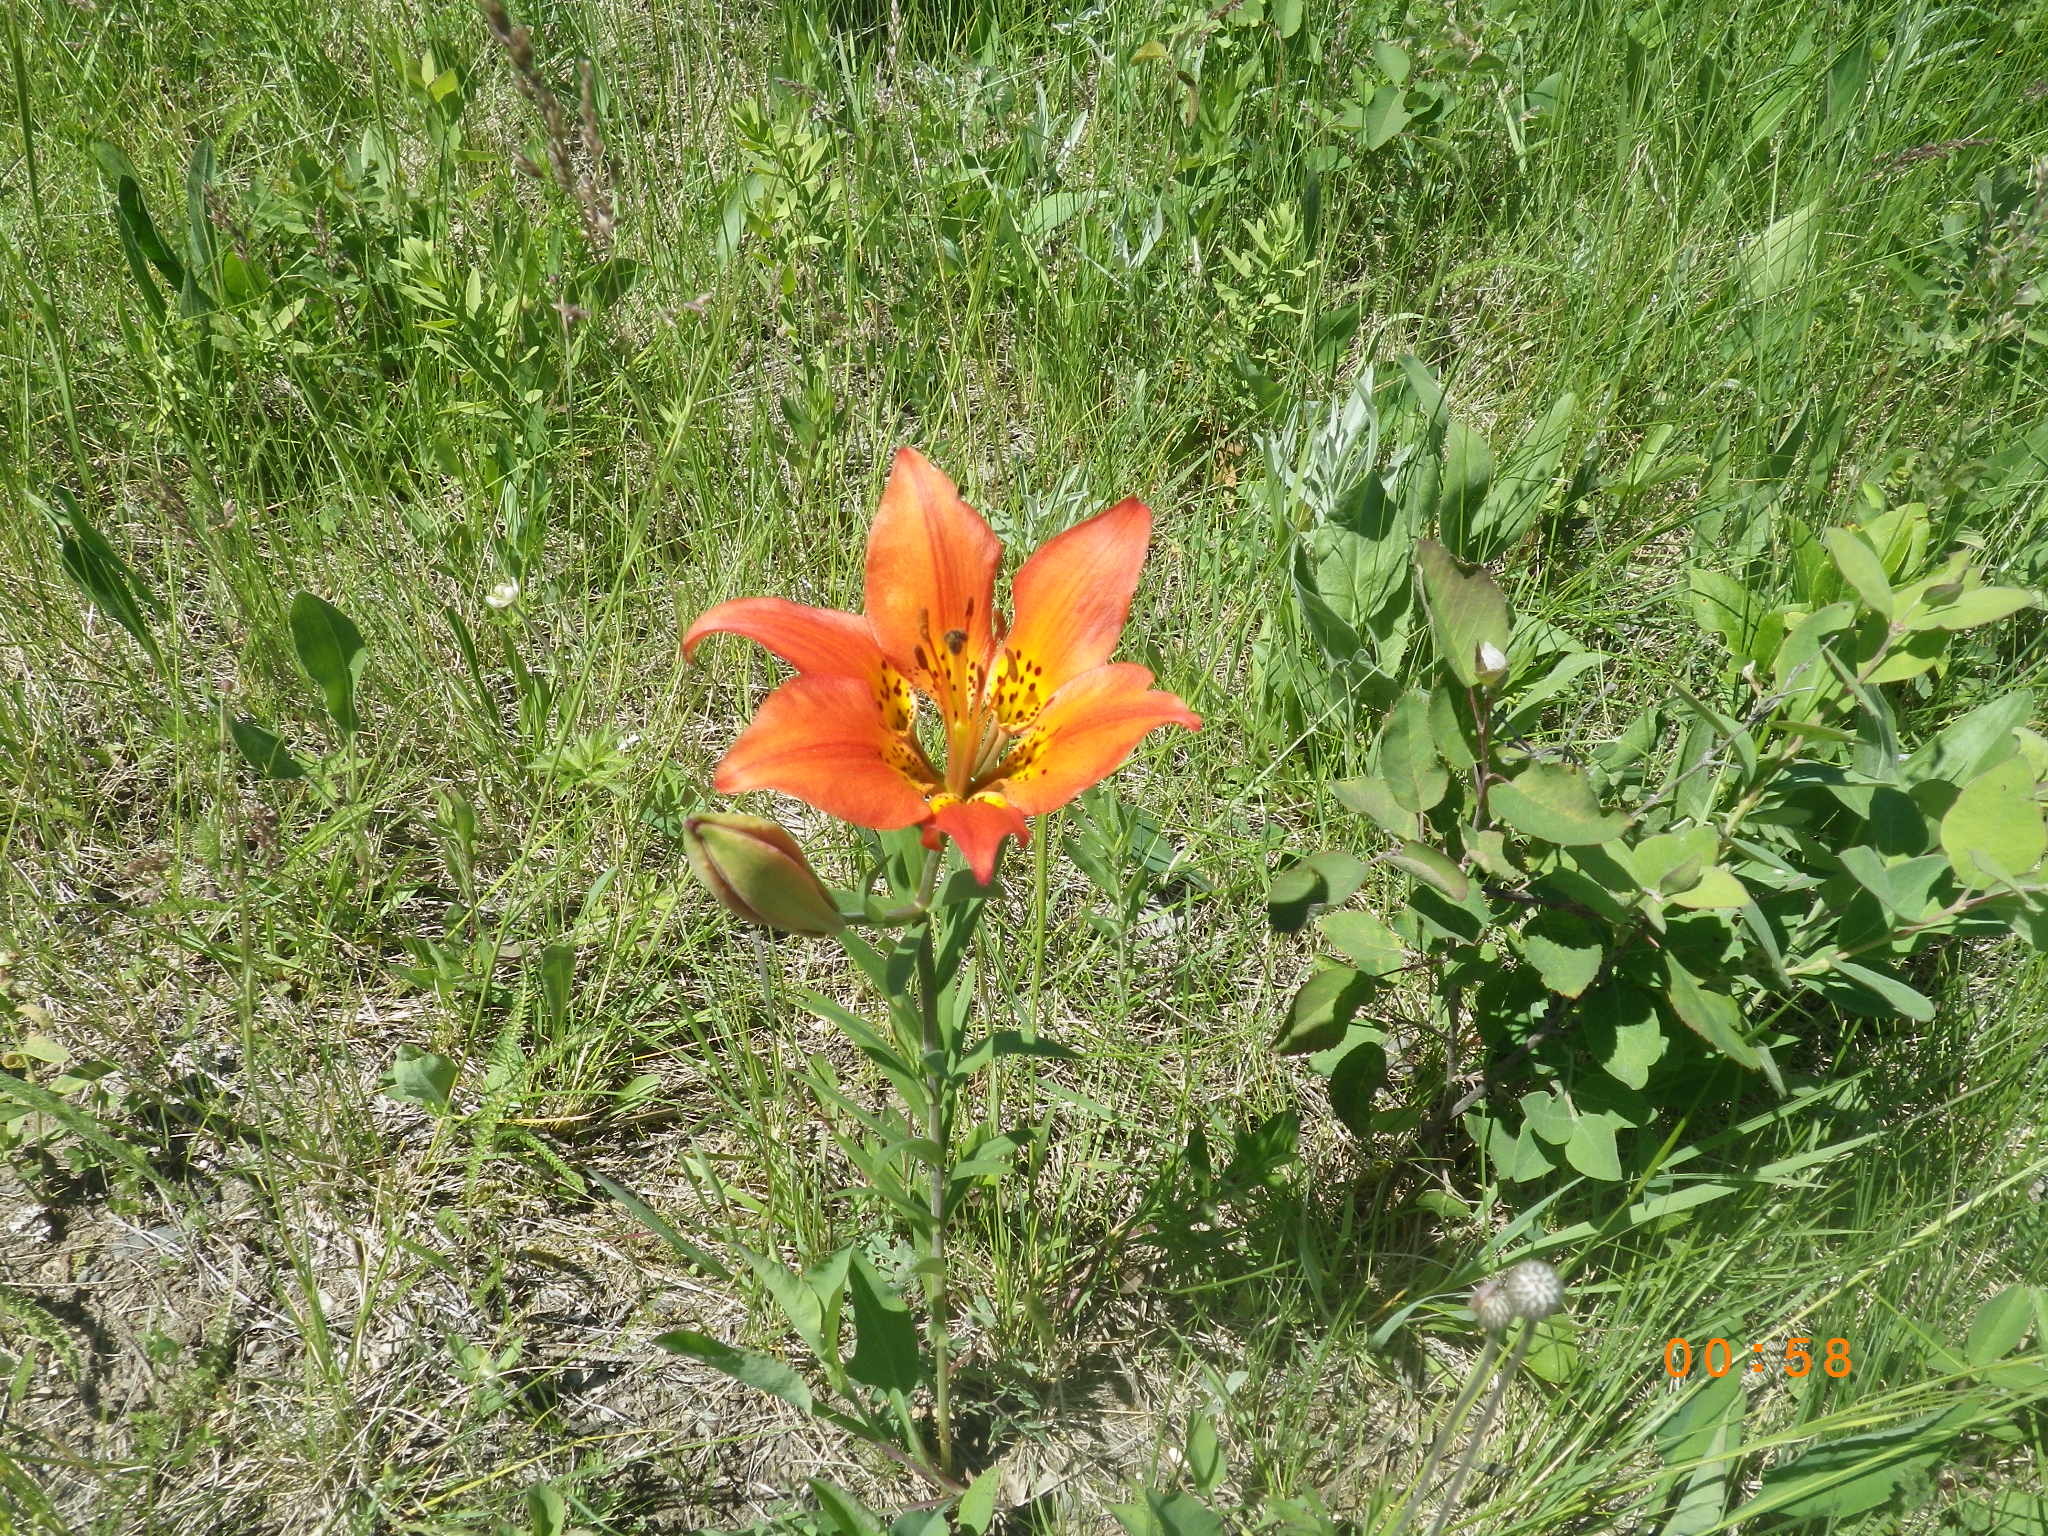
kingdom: Plantae
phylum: Tracheophyta
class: Liliopsida
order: Liliales
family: Liliaceae
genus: Lilium
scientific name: Lilium philadelphicum
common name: Red lily
